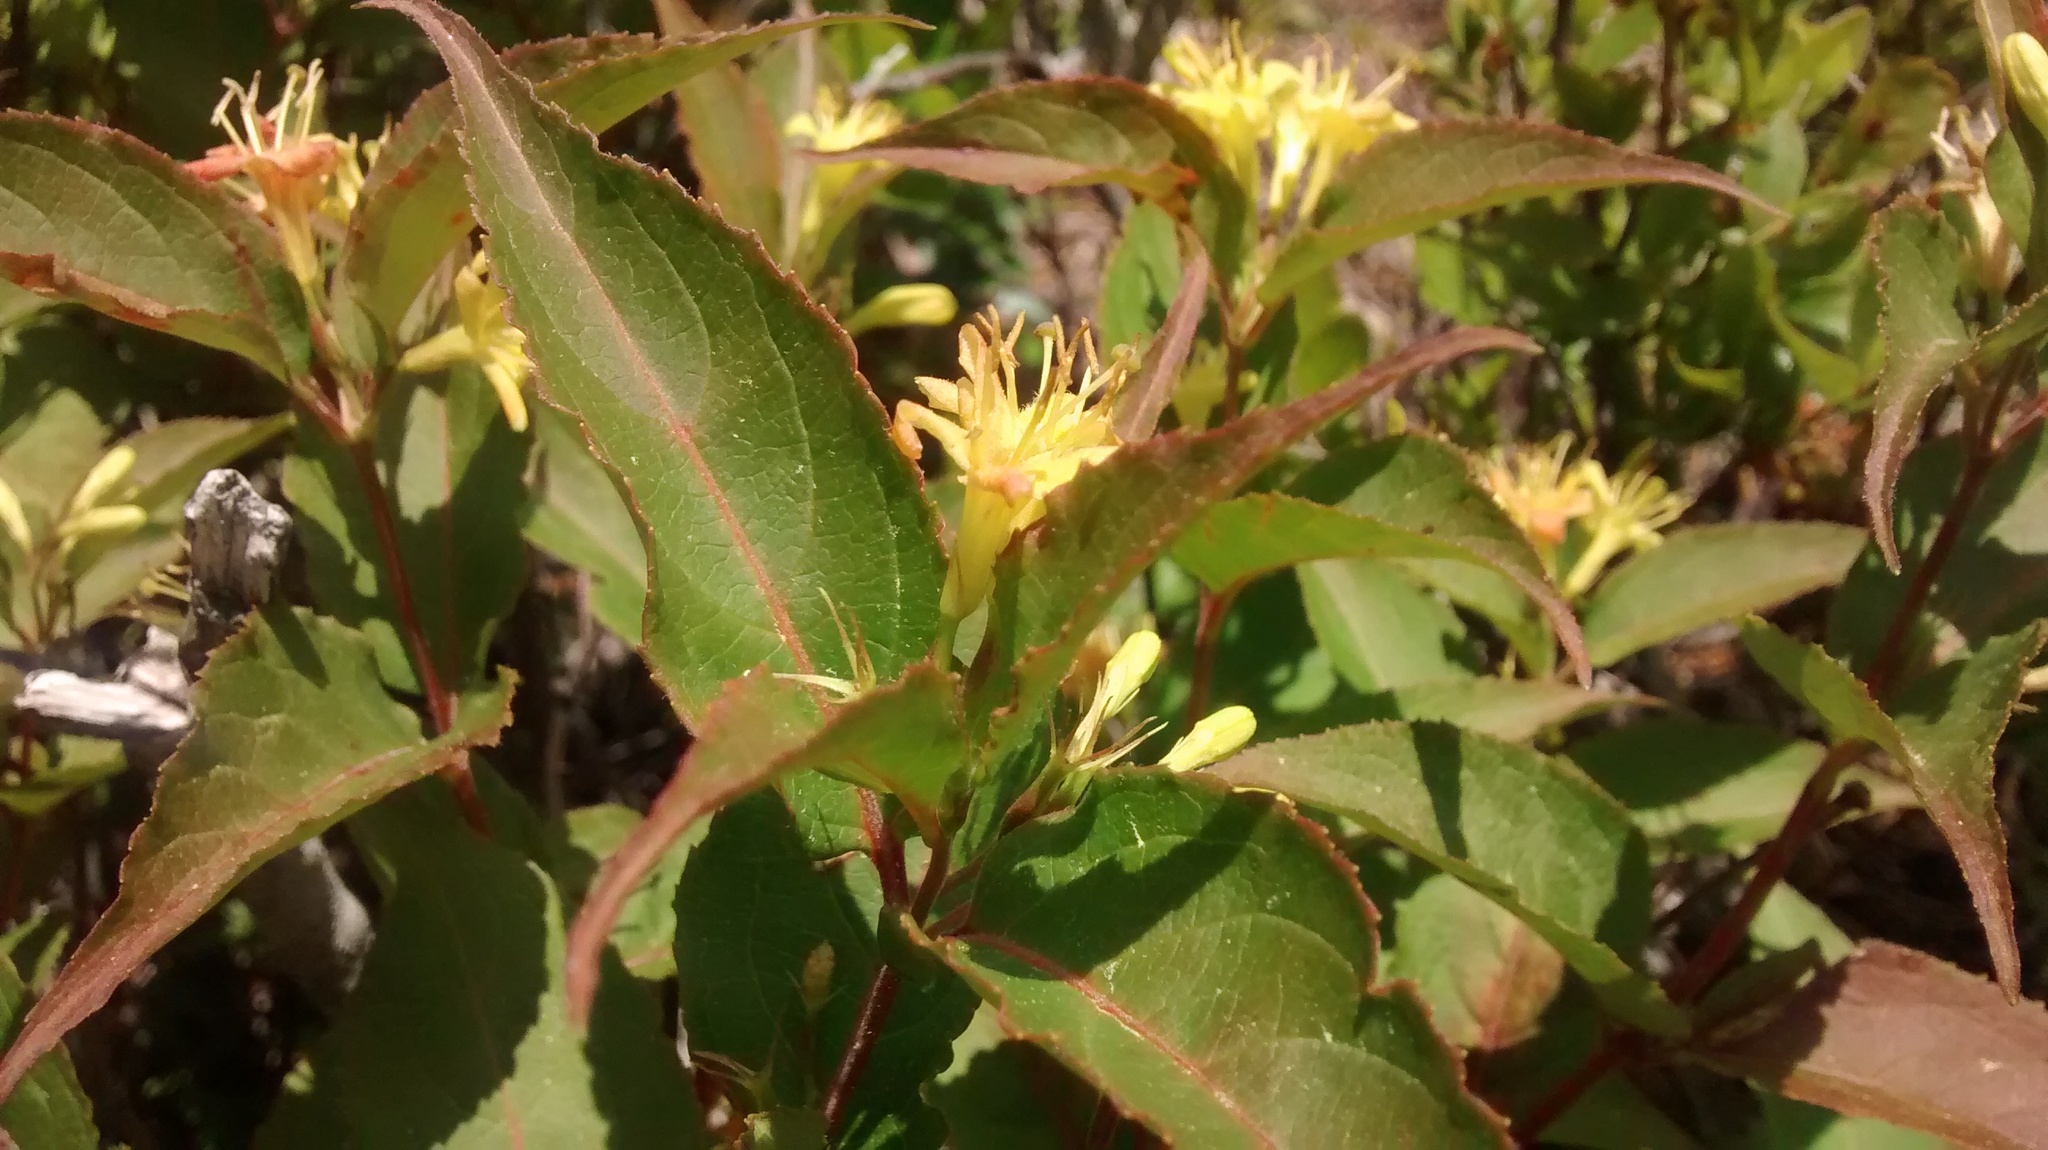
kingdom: Plantae
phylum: Tracheophyta
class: Magnoliopsida
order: Dipsacales
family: Caprifoliaceae
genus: Diervilla
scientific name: Diervilla lonicera
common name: Bush-honeysuckle
